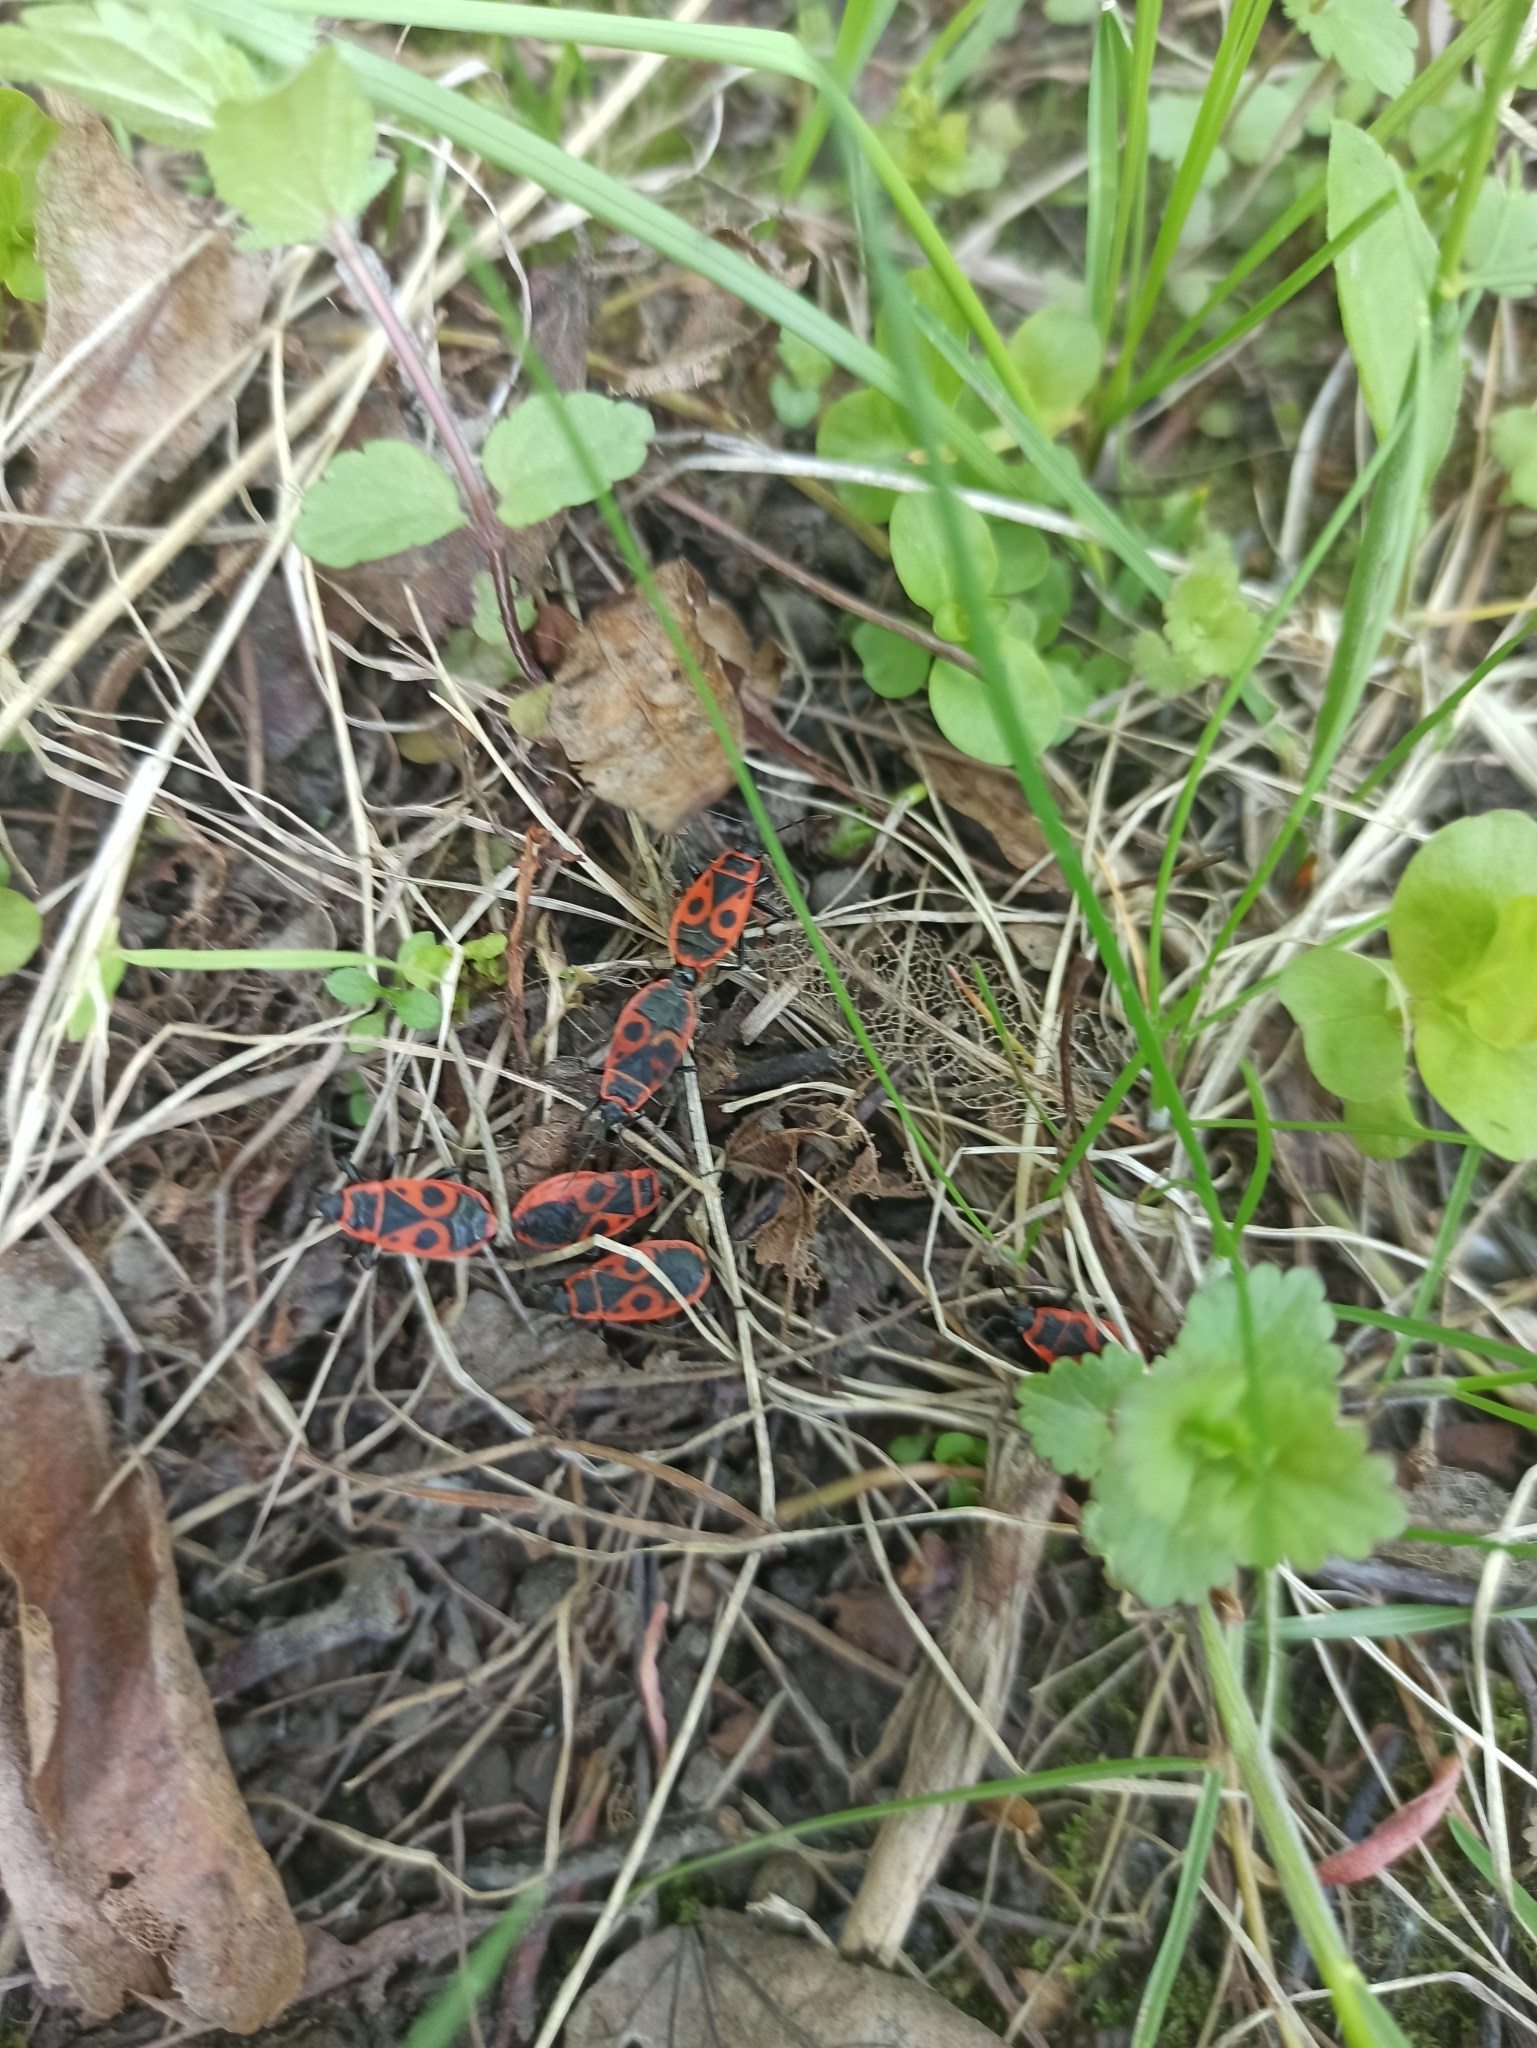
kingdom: Animalia
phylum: Arthropoda
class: Insecta
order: Hemiptera
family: Pyrrhocoridae
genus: Pyrrhocoris
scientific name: Pyrrhocoris apterus
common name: Firebug
